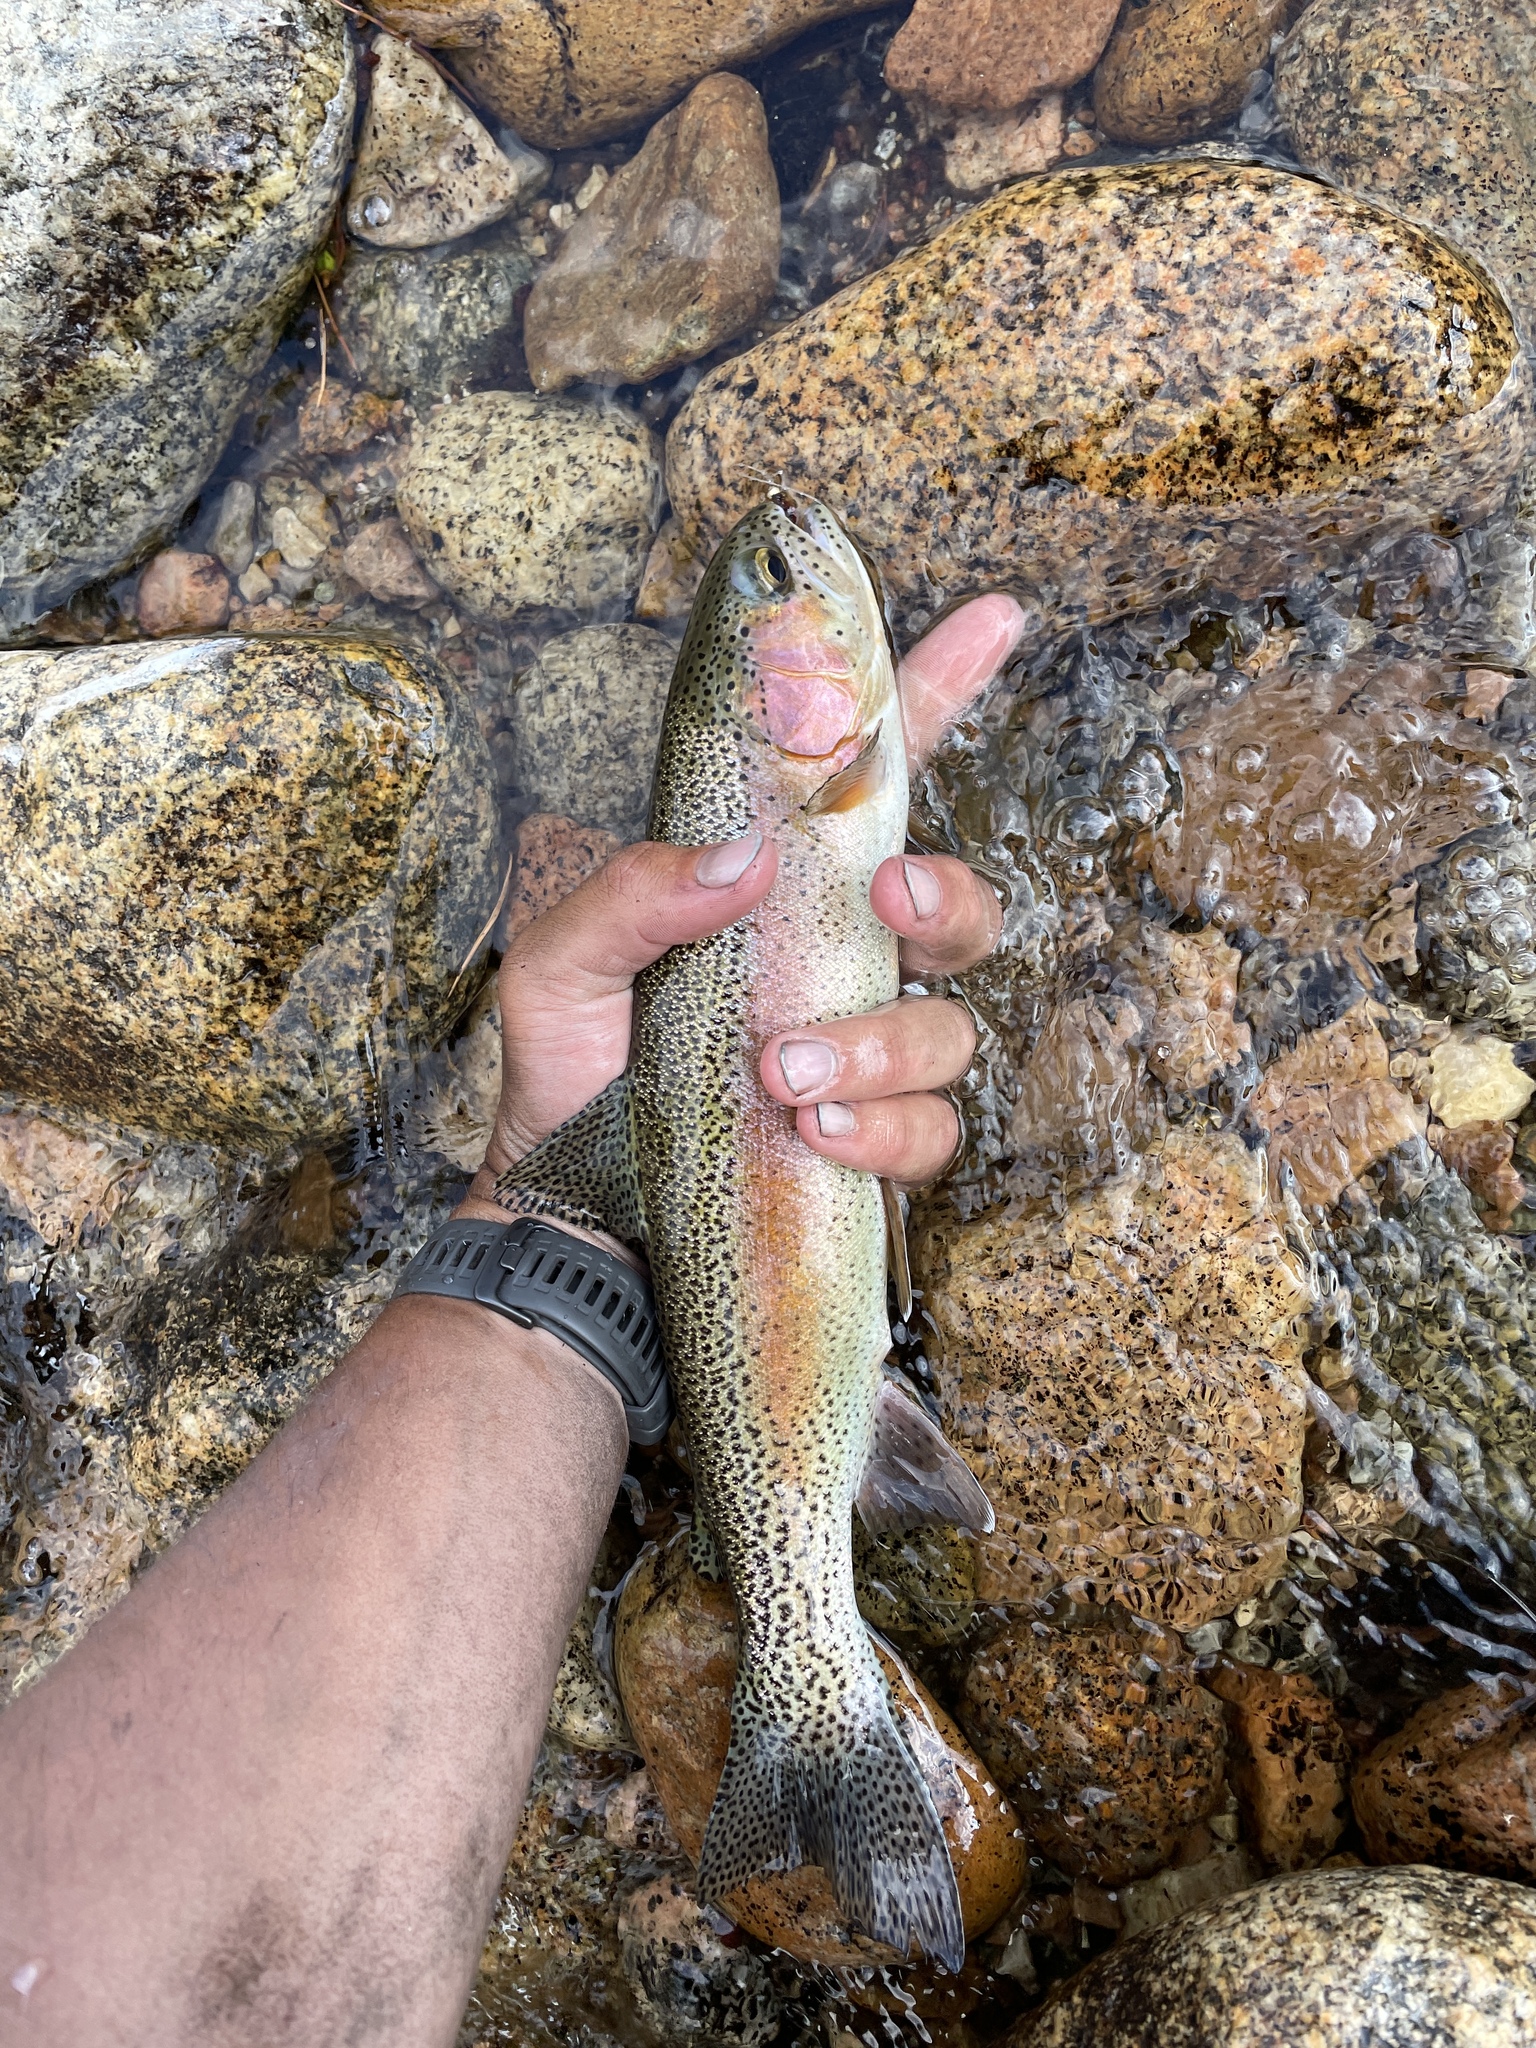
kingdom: Animalia
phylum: Chordata
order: Salmoniformes
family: Salmonidae
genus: Oncorhynchus
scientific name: Oncorhynchus mykiss
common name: Rainbow trout
